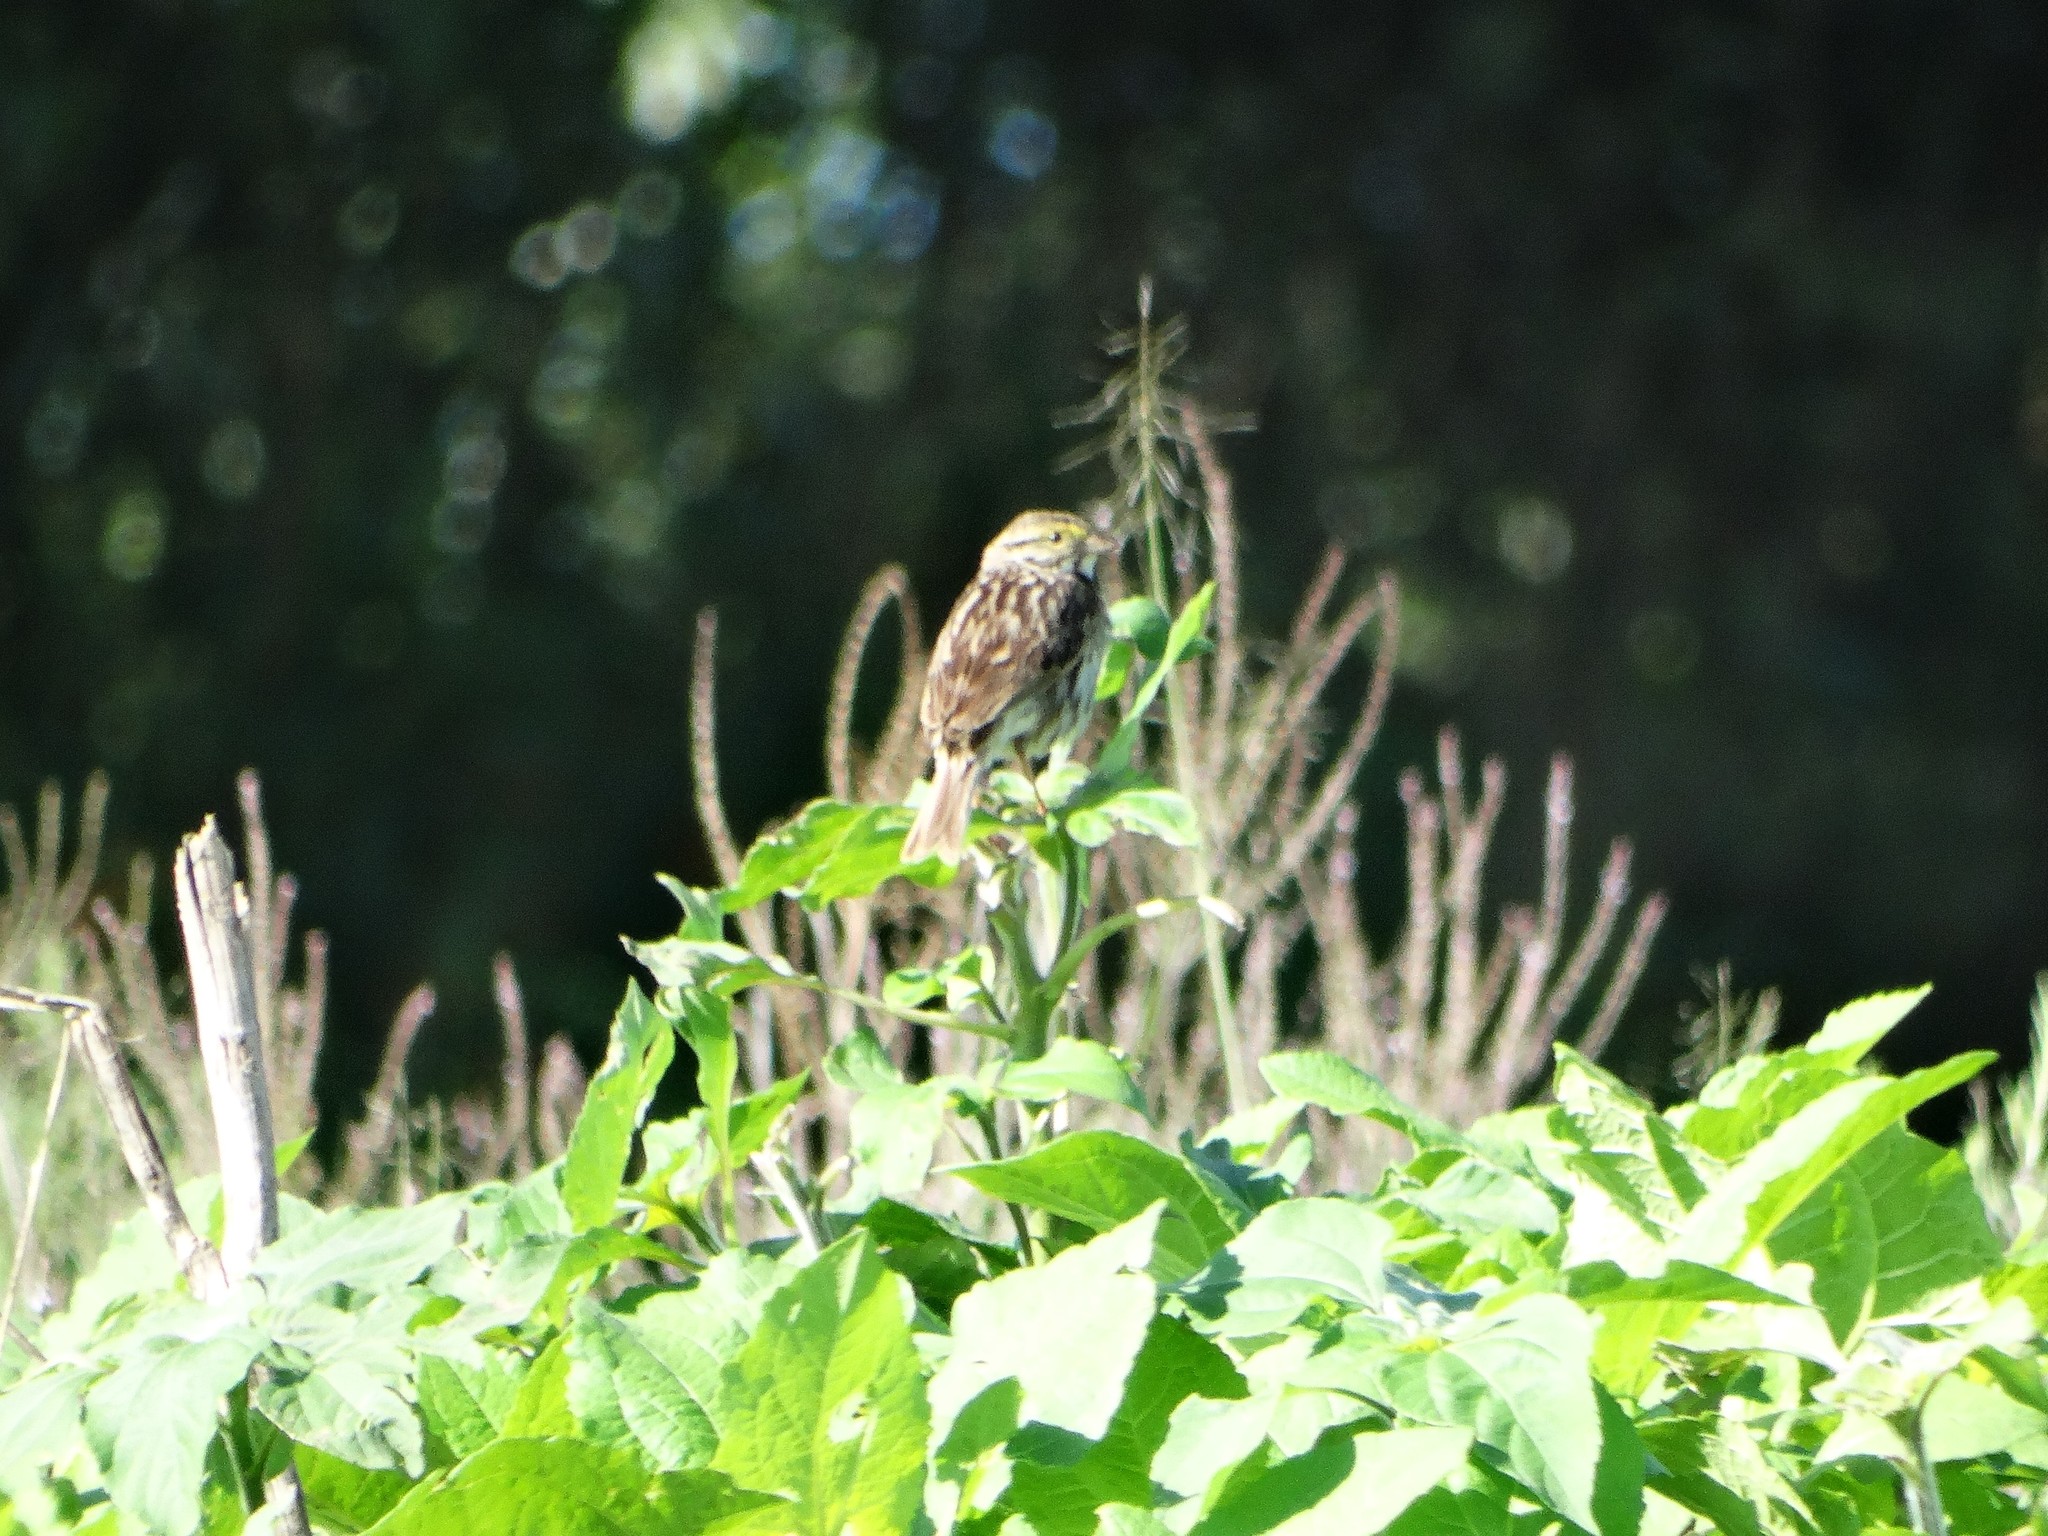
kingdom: Animalia
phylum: Chordata
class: Aves
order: Passeriformes
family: Passerellidae
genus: Passerculus
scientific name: Passerculus sandwichensis
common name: Savannah sparrow
